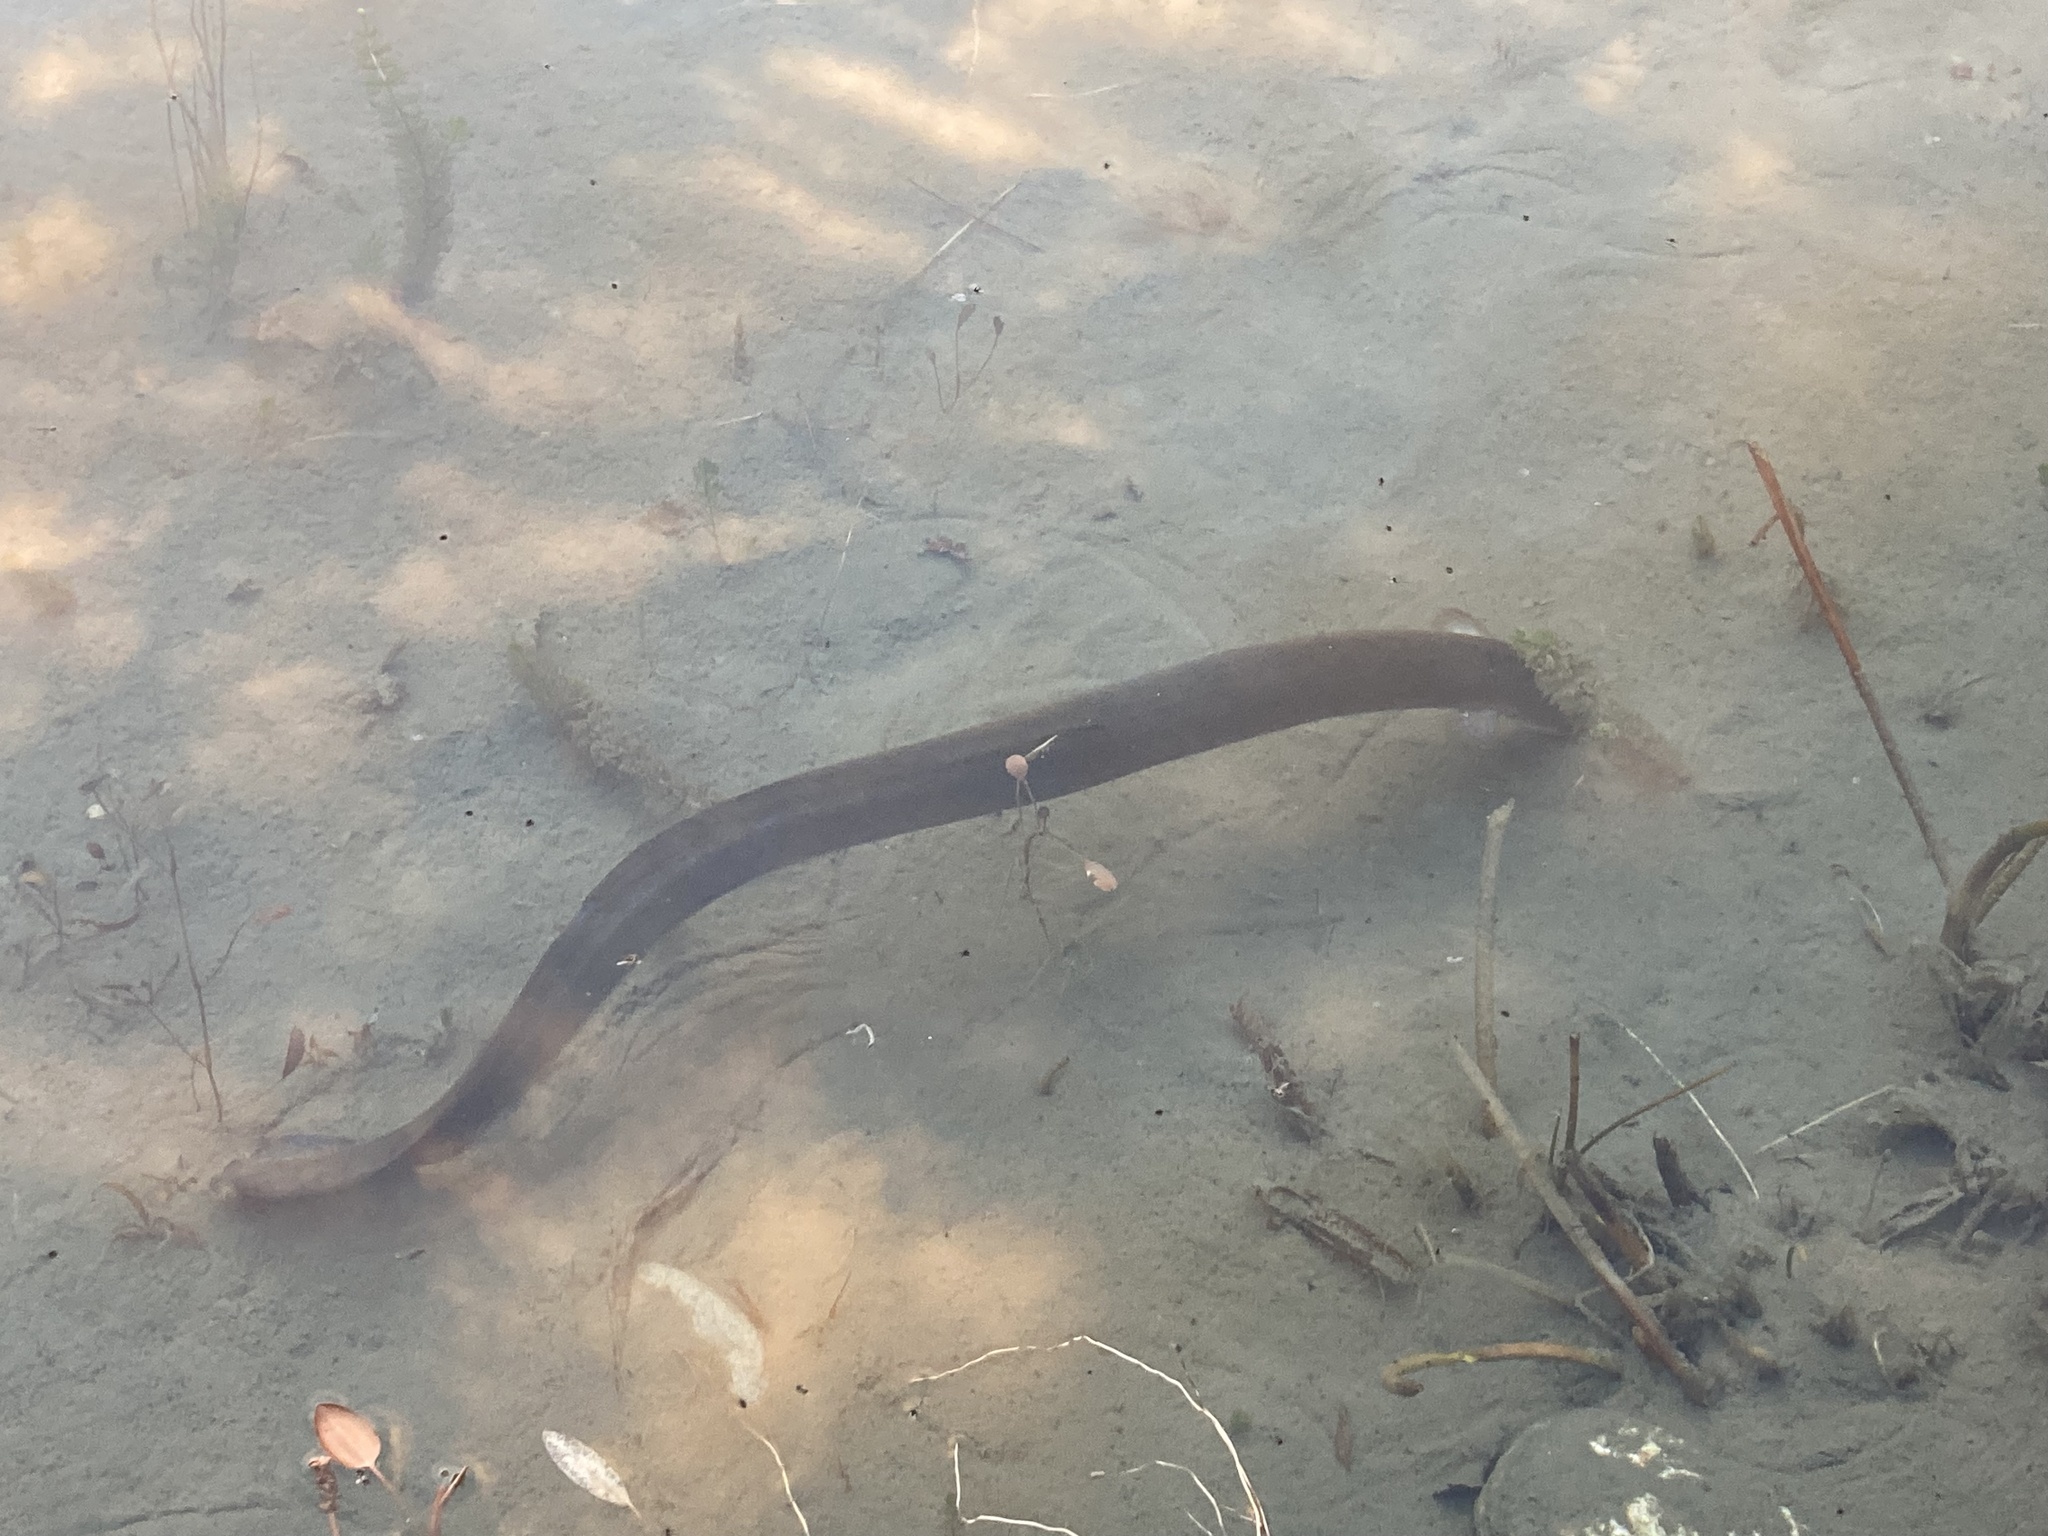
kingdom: Animalia
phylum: Chordata
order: Anguilliformes
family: Anguillidae
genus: Anguilla
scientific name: Anguilla australis
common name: Shortfin eel
